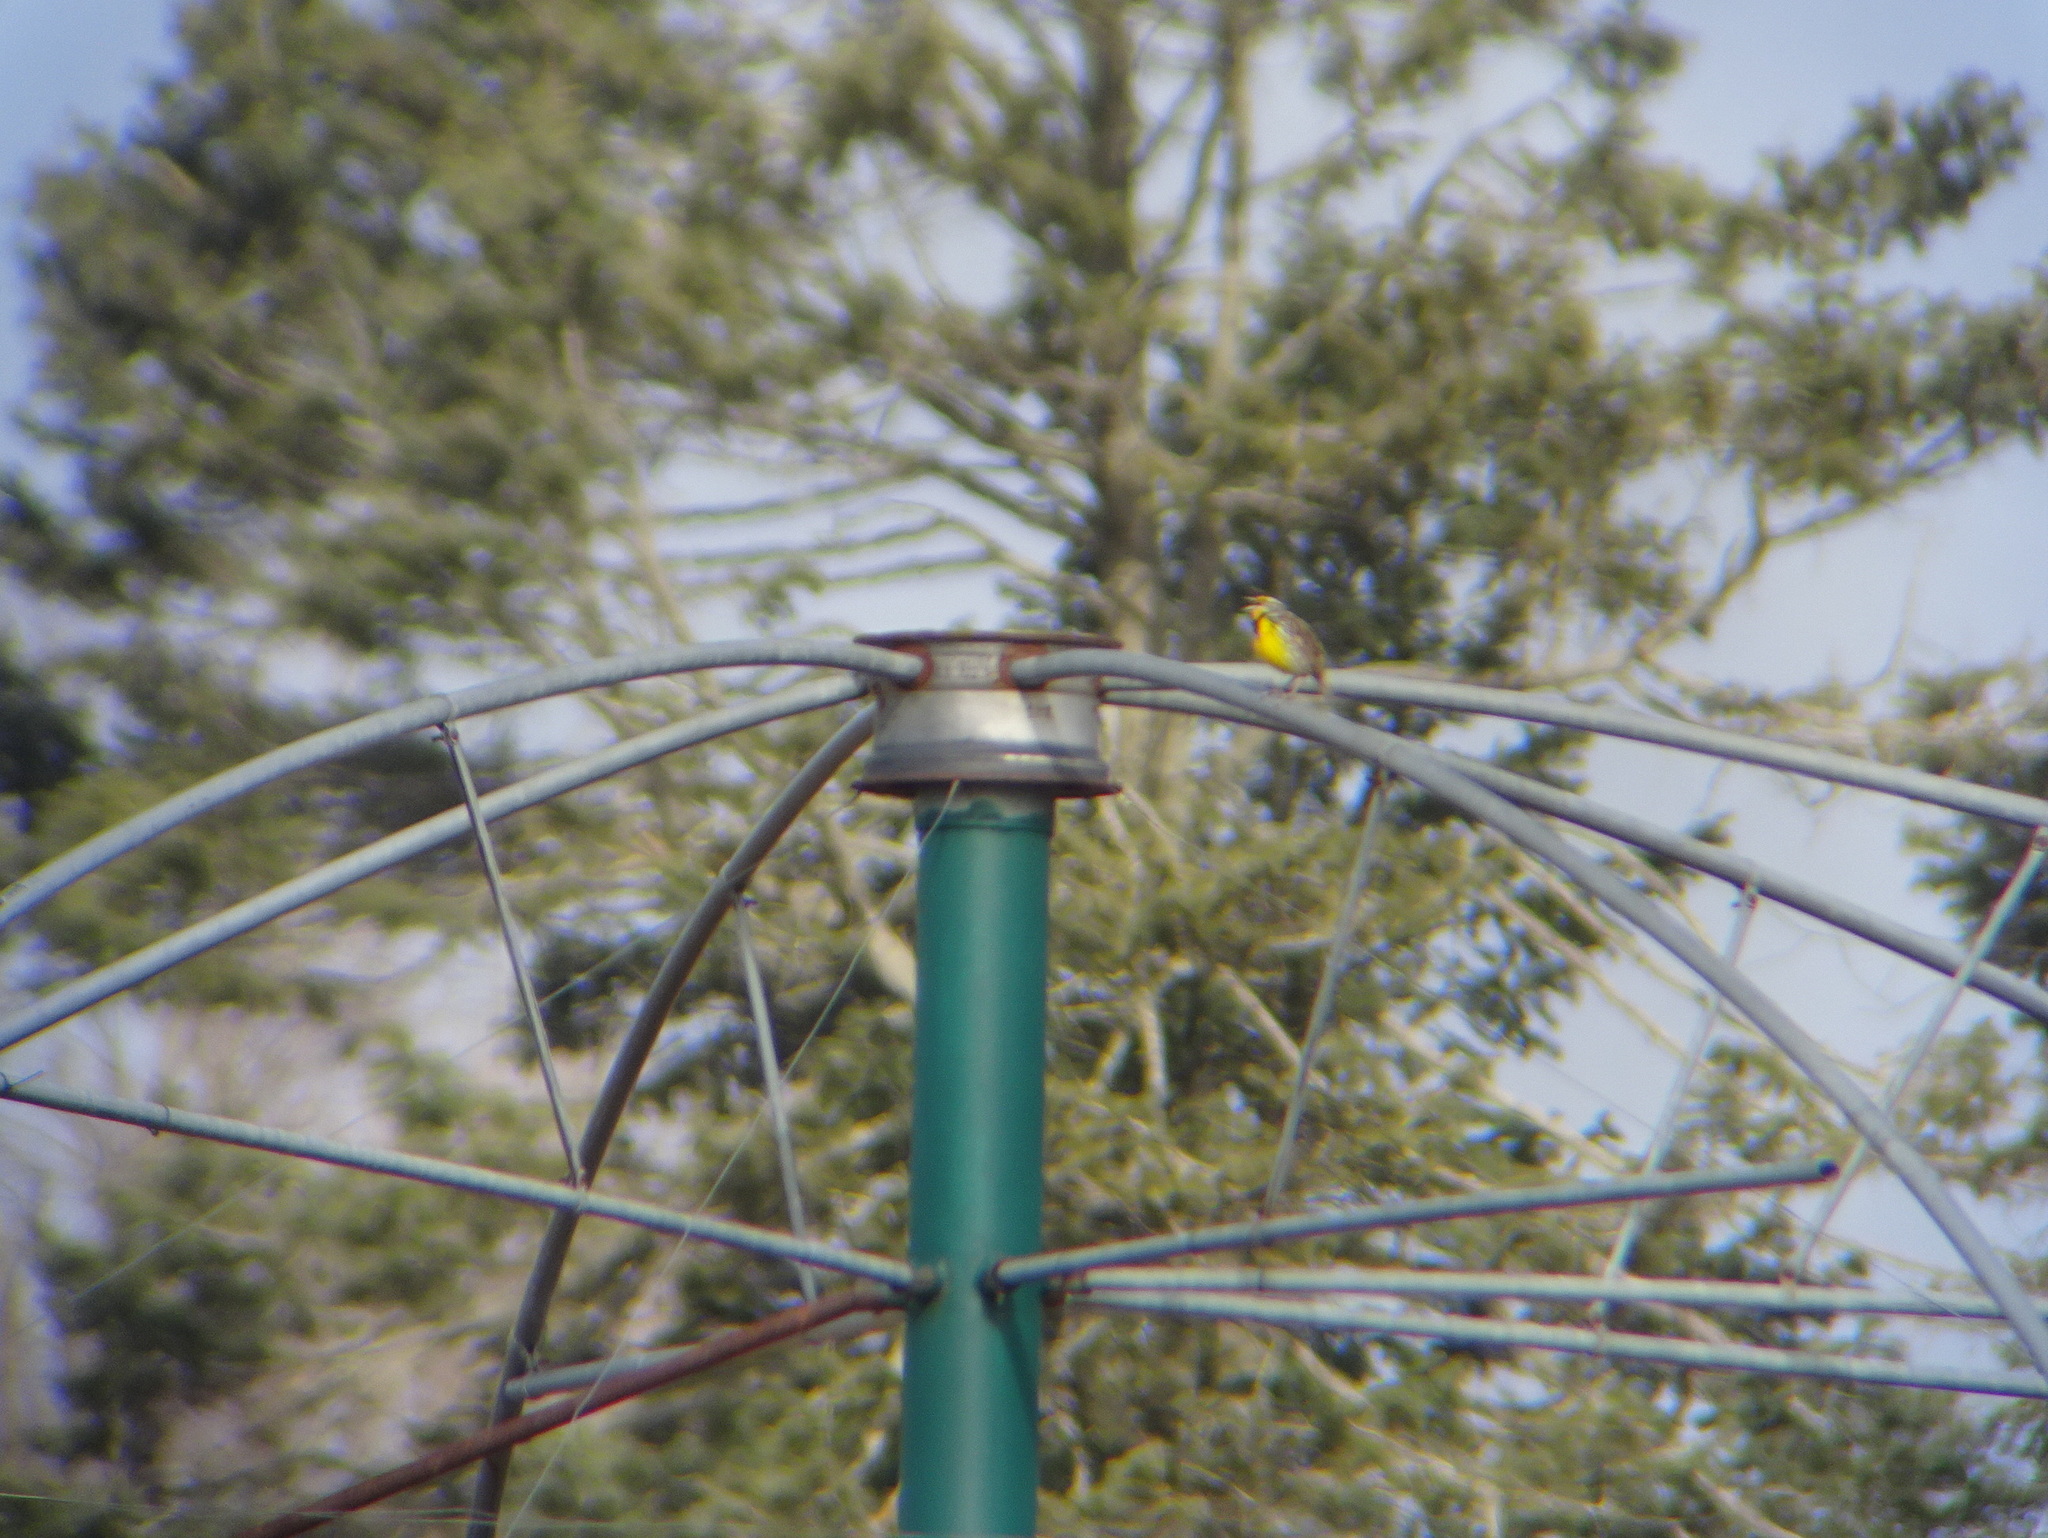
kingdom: Animalia
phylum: Chordata
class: Aves
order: Passeriformes
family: Icteridae
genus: Sturnella
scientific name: Sturnella magna
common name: Eastern meadowlark
